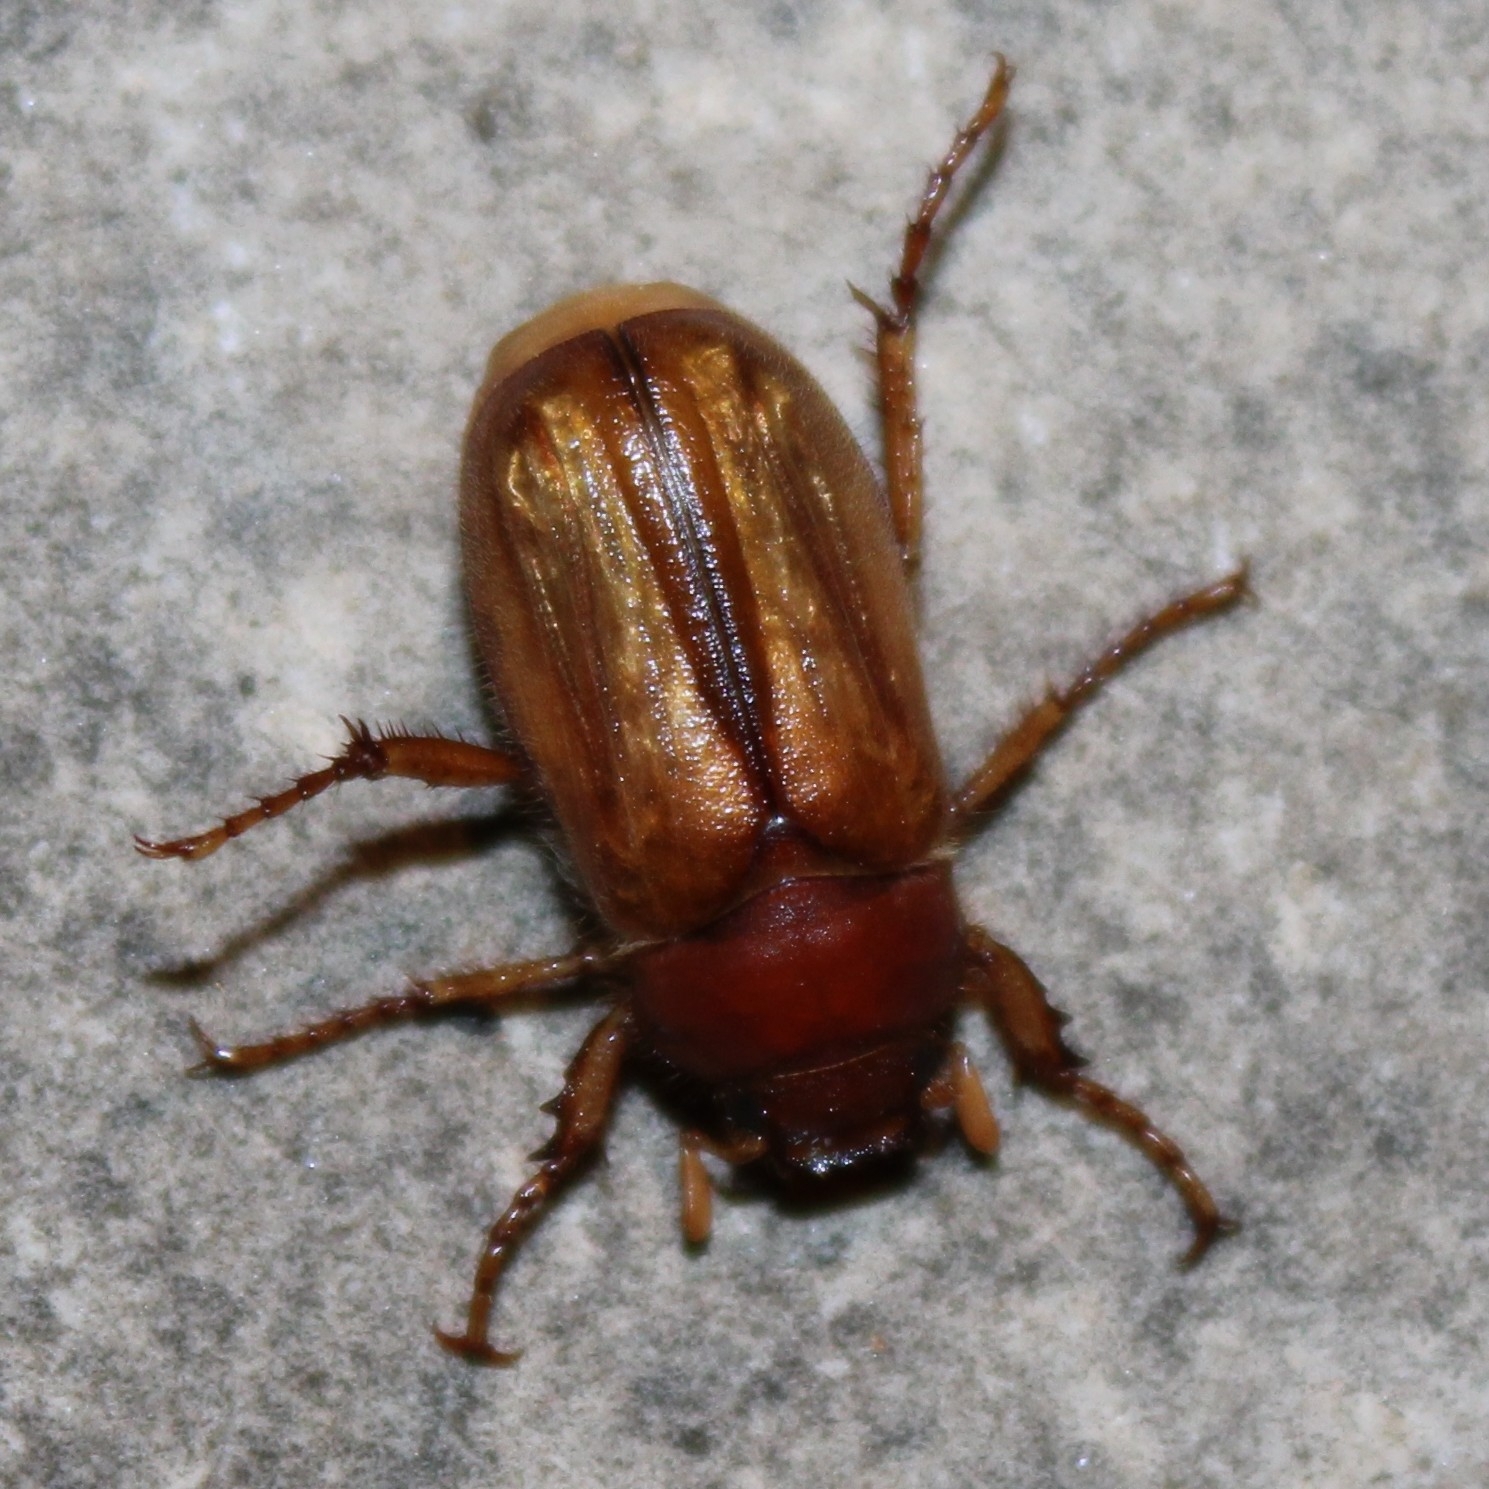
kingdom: Animalia
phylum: Arthropoda
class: Insecta
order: Coleoptera
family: Scarabaeidae
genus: Amphimallon
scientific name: Amphimallon majale
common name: European chafer
